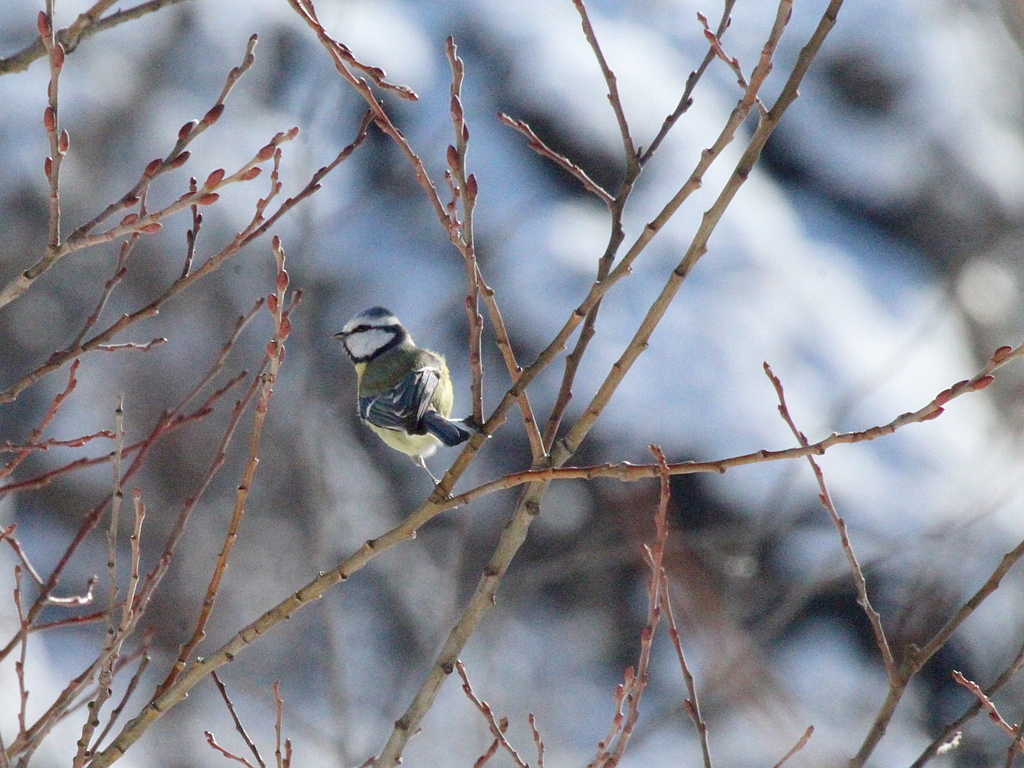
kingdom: Animalia
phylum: Chordata
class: Aves
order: Passeriformes
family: Paridae
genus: Cyanistes
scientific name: Cyanistes caeruleus
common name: Eurasian blue tit
